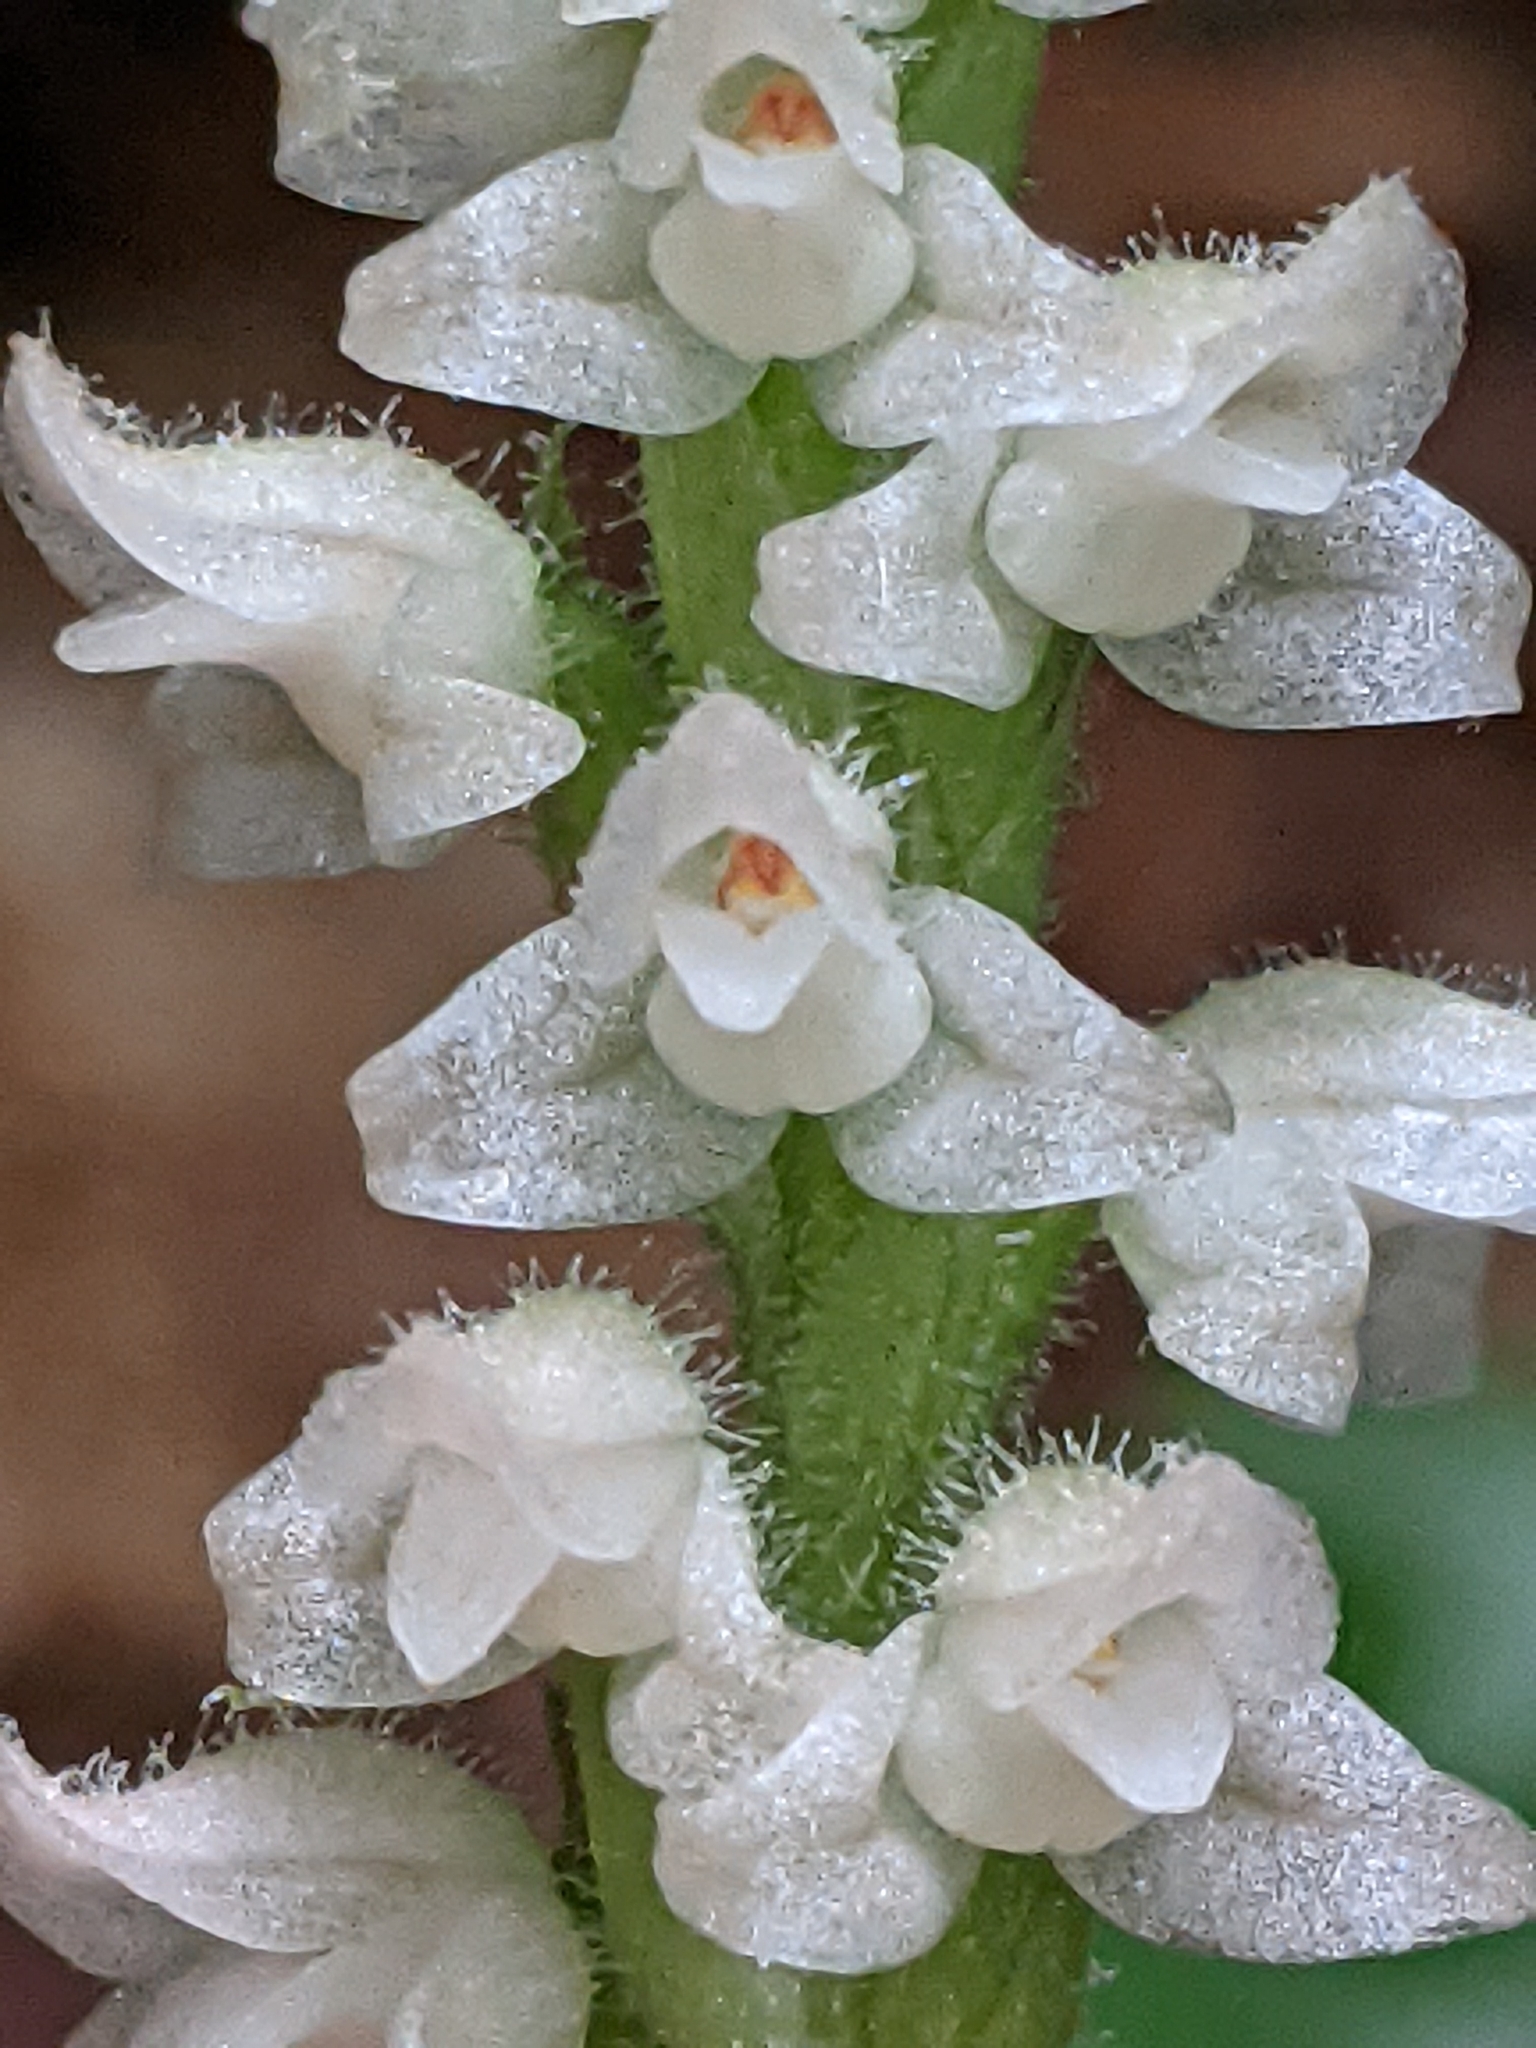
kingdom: Plantae
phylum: Tracheophyta
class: Liliopsida
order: Asparagales
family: Orchidaceae
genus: Goodyera
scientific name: Goodyera tesselata
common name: Checkered rattlesnake-plantain
